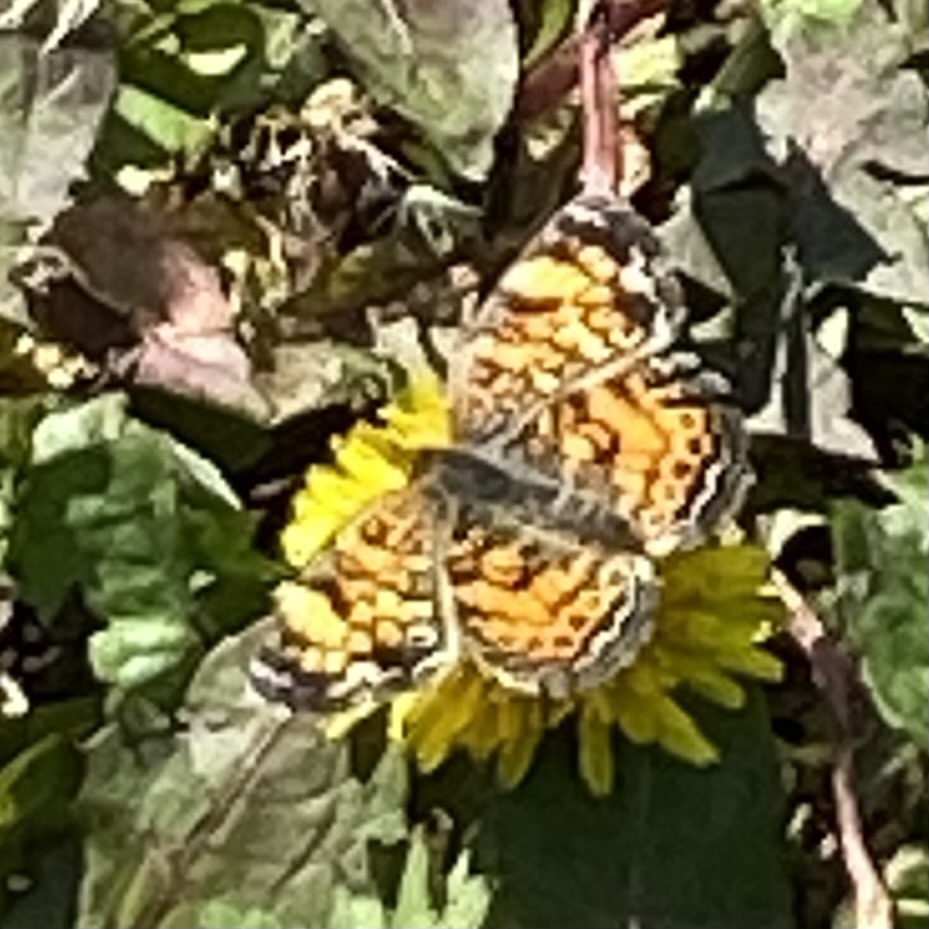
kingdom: Animalia
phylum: Arthropoda
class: Insecta
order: Lepidoptera
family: Nymphalidae
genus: Phyciodes
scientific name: Phyciodes tharos
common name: Pearl crescent
